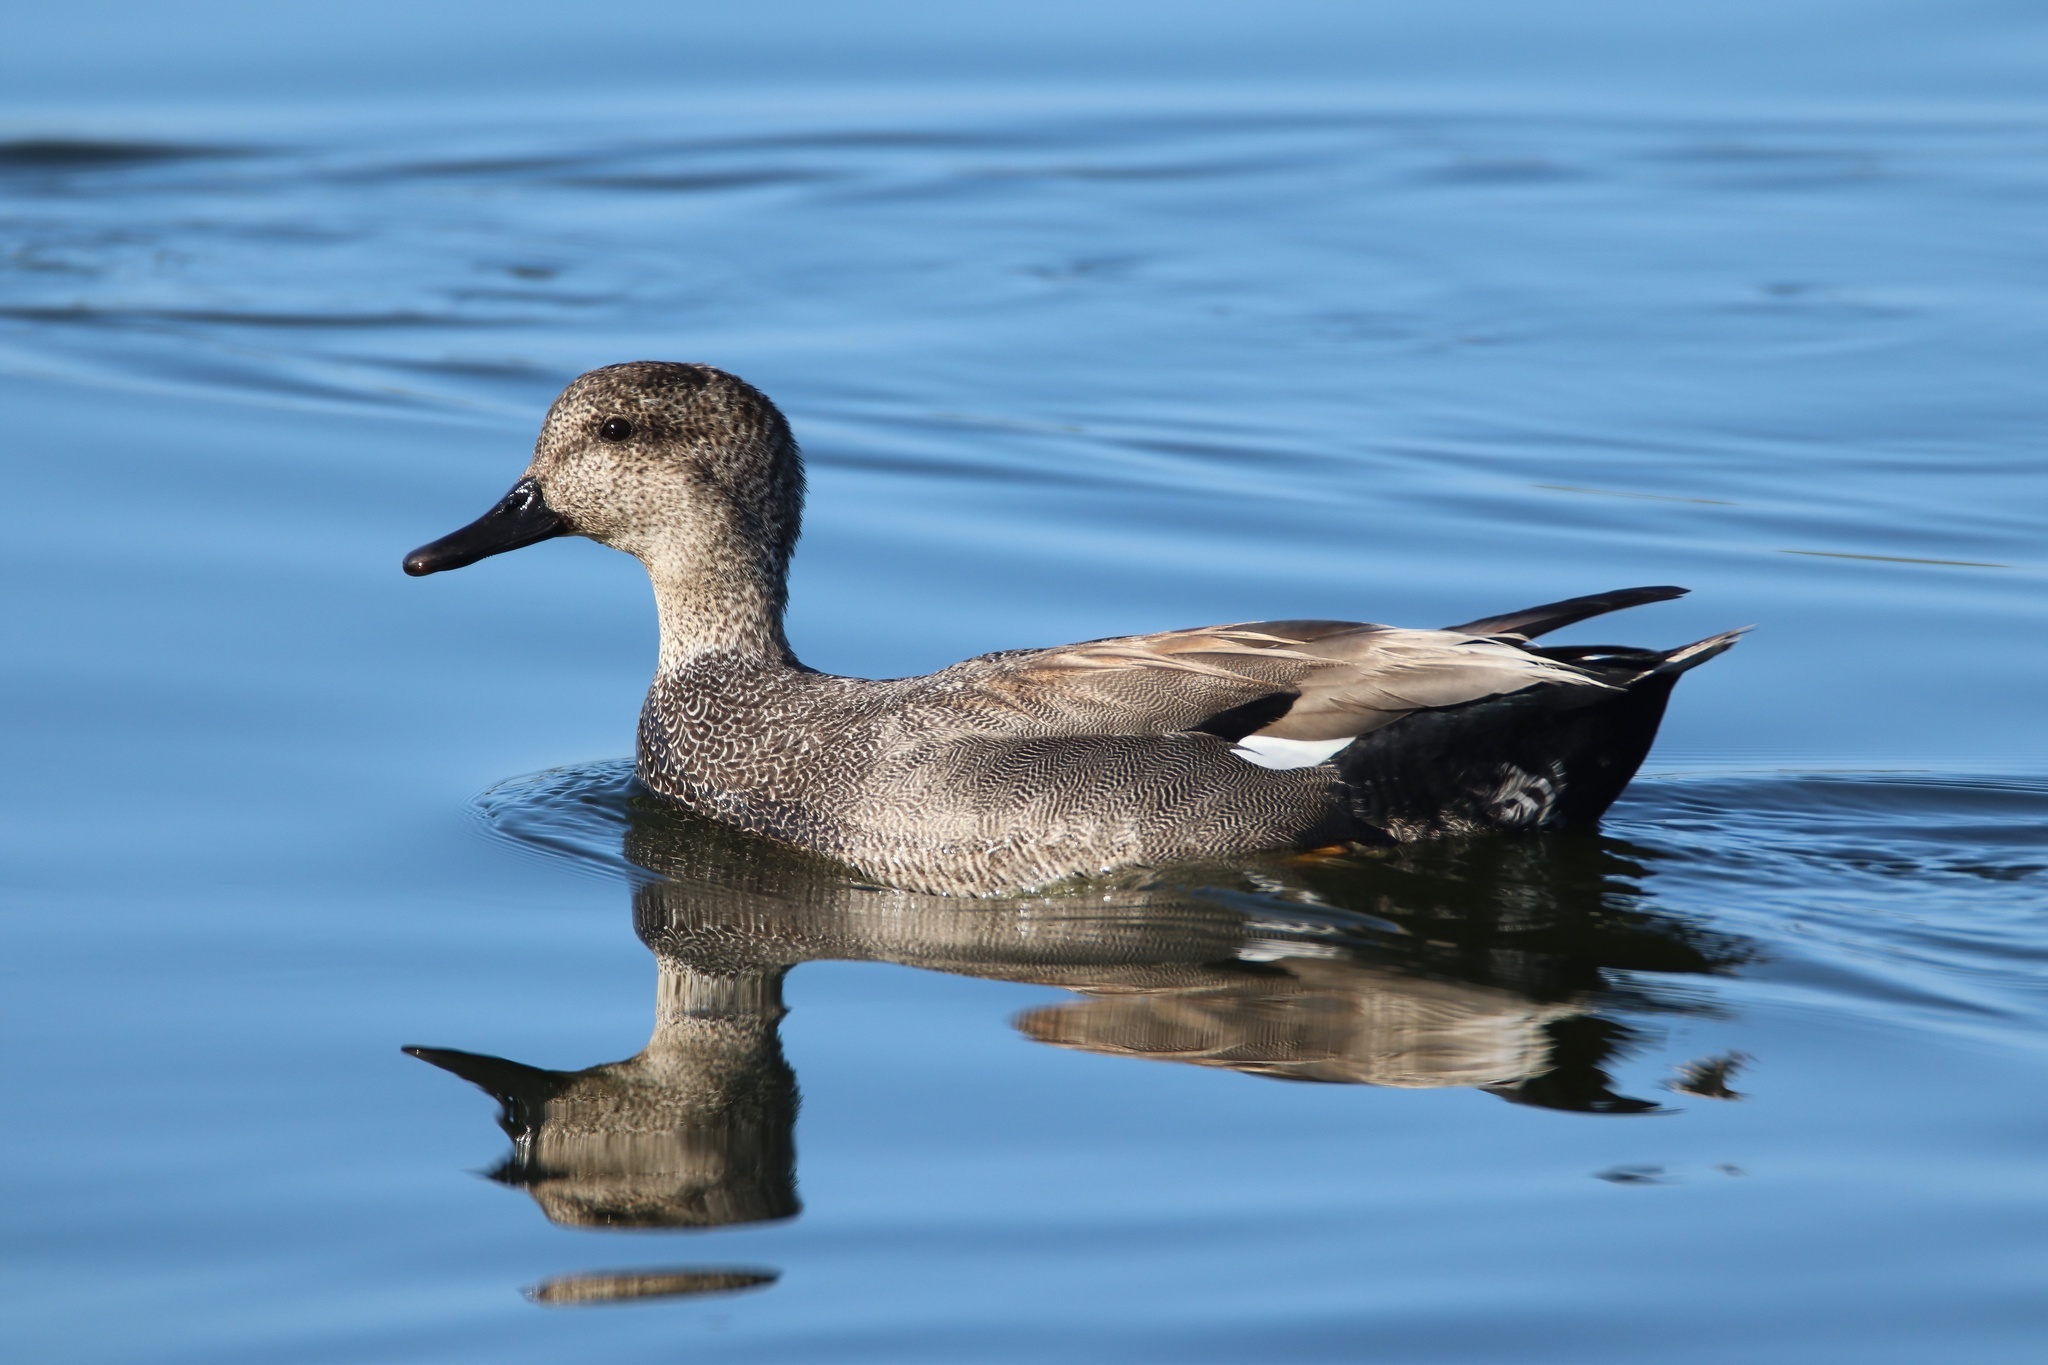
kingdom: Animalia
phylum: Chordata
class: Aves
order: Anseriformes
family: Anatidae
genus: Mareca
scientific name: Mareca strepera
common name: Gadwall
